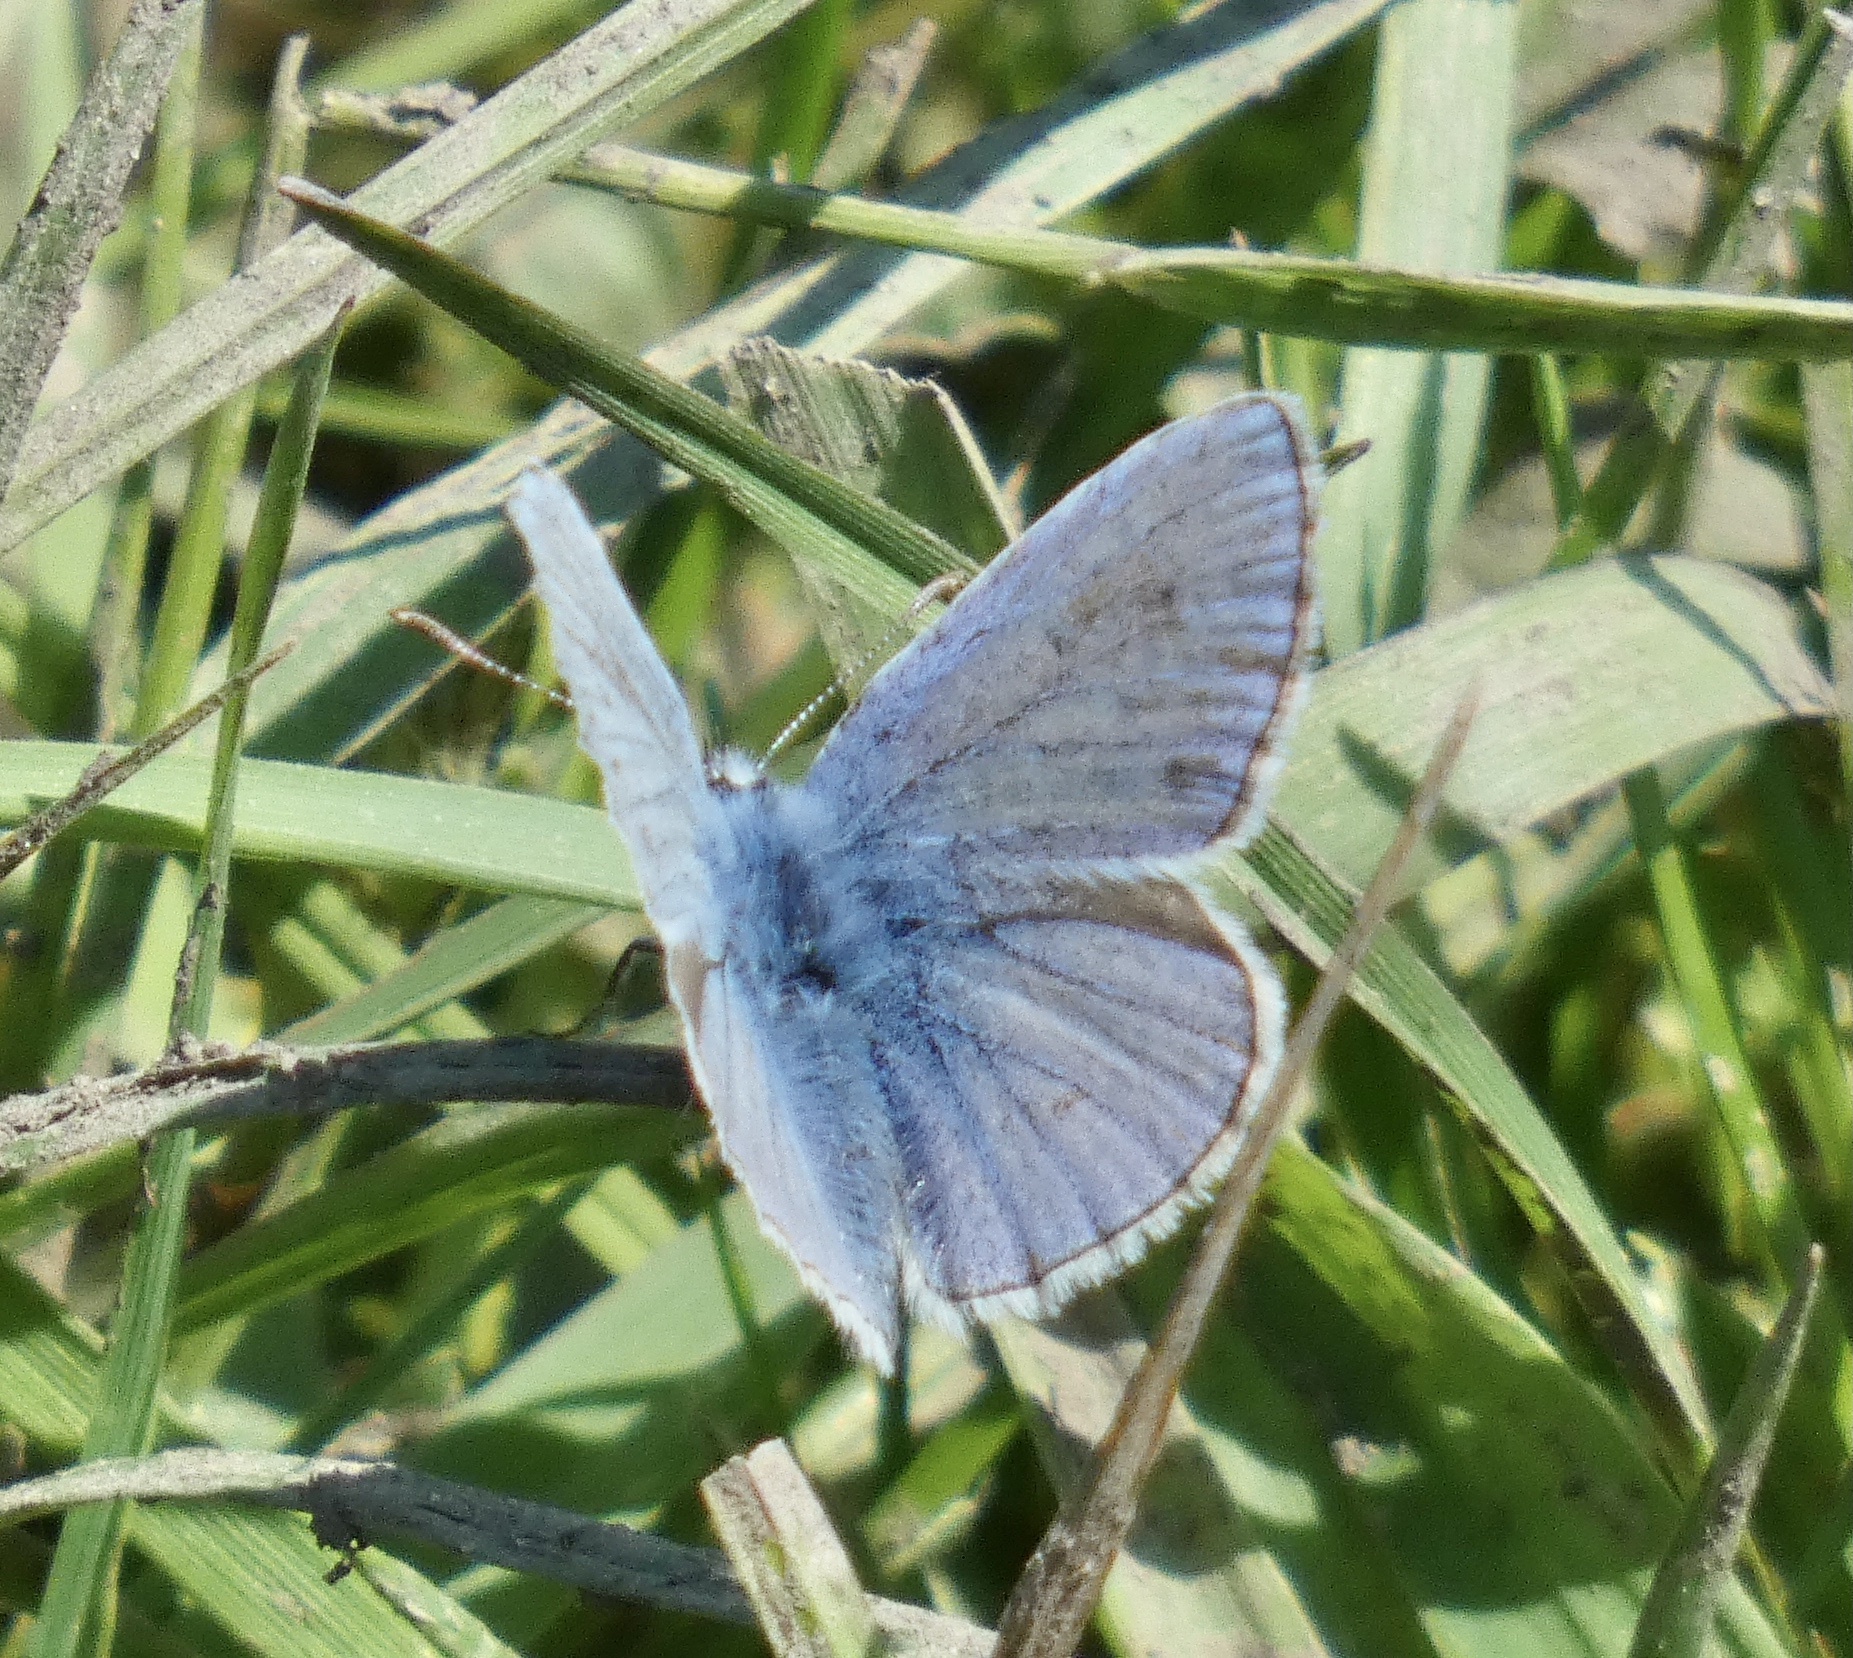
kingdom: Animalia
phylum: Arthropoda
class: Insecta
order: Lepidoptera
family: Lycaenidae
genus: Polyommatus
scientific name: Polyommatus icarus
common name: Common blue
